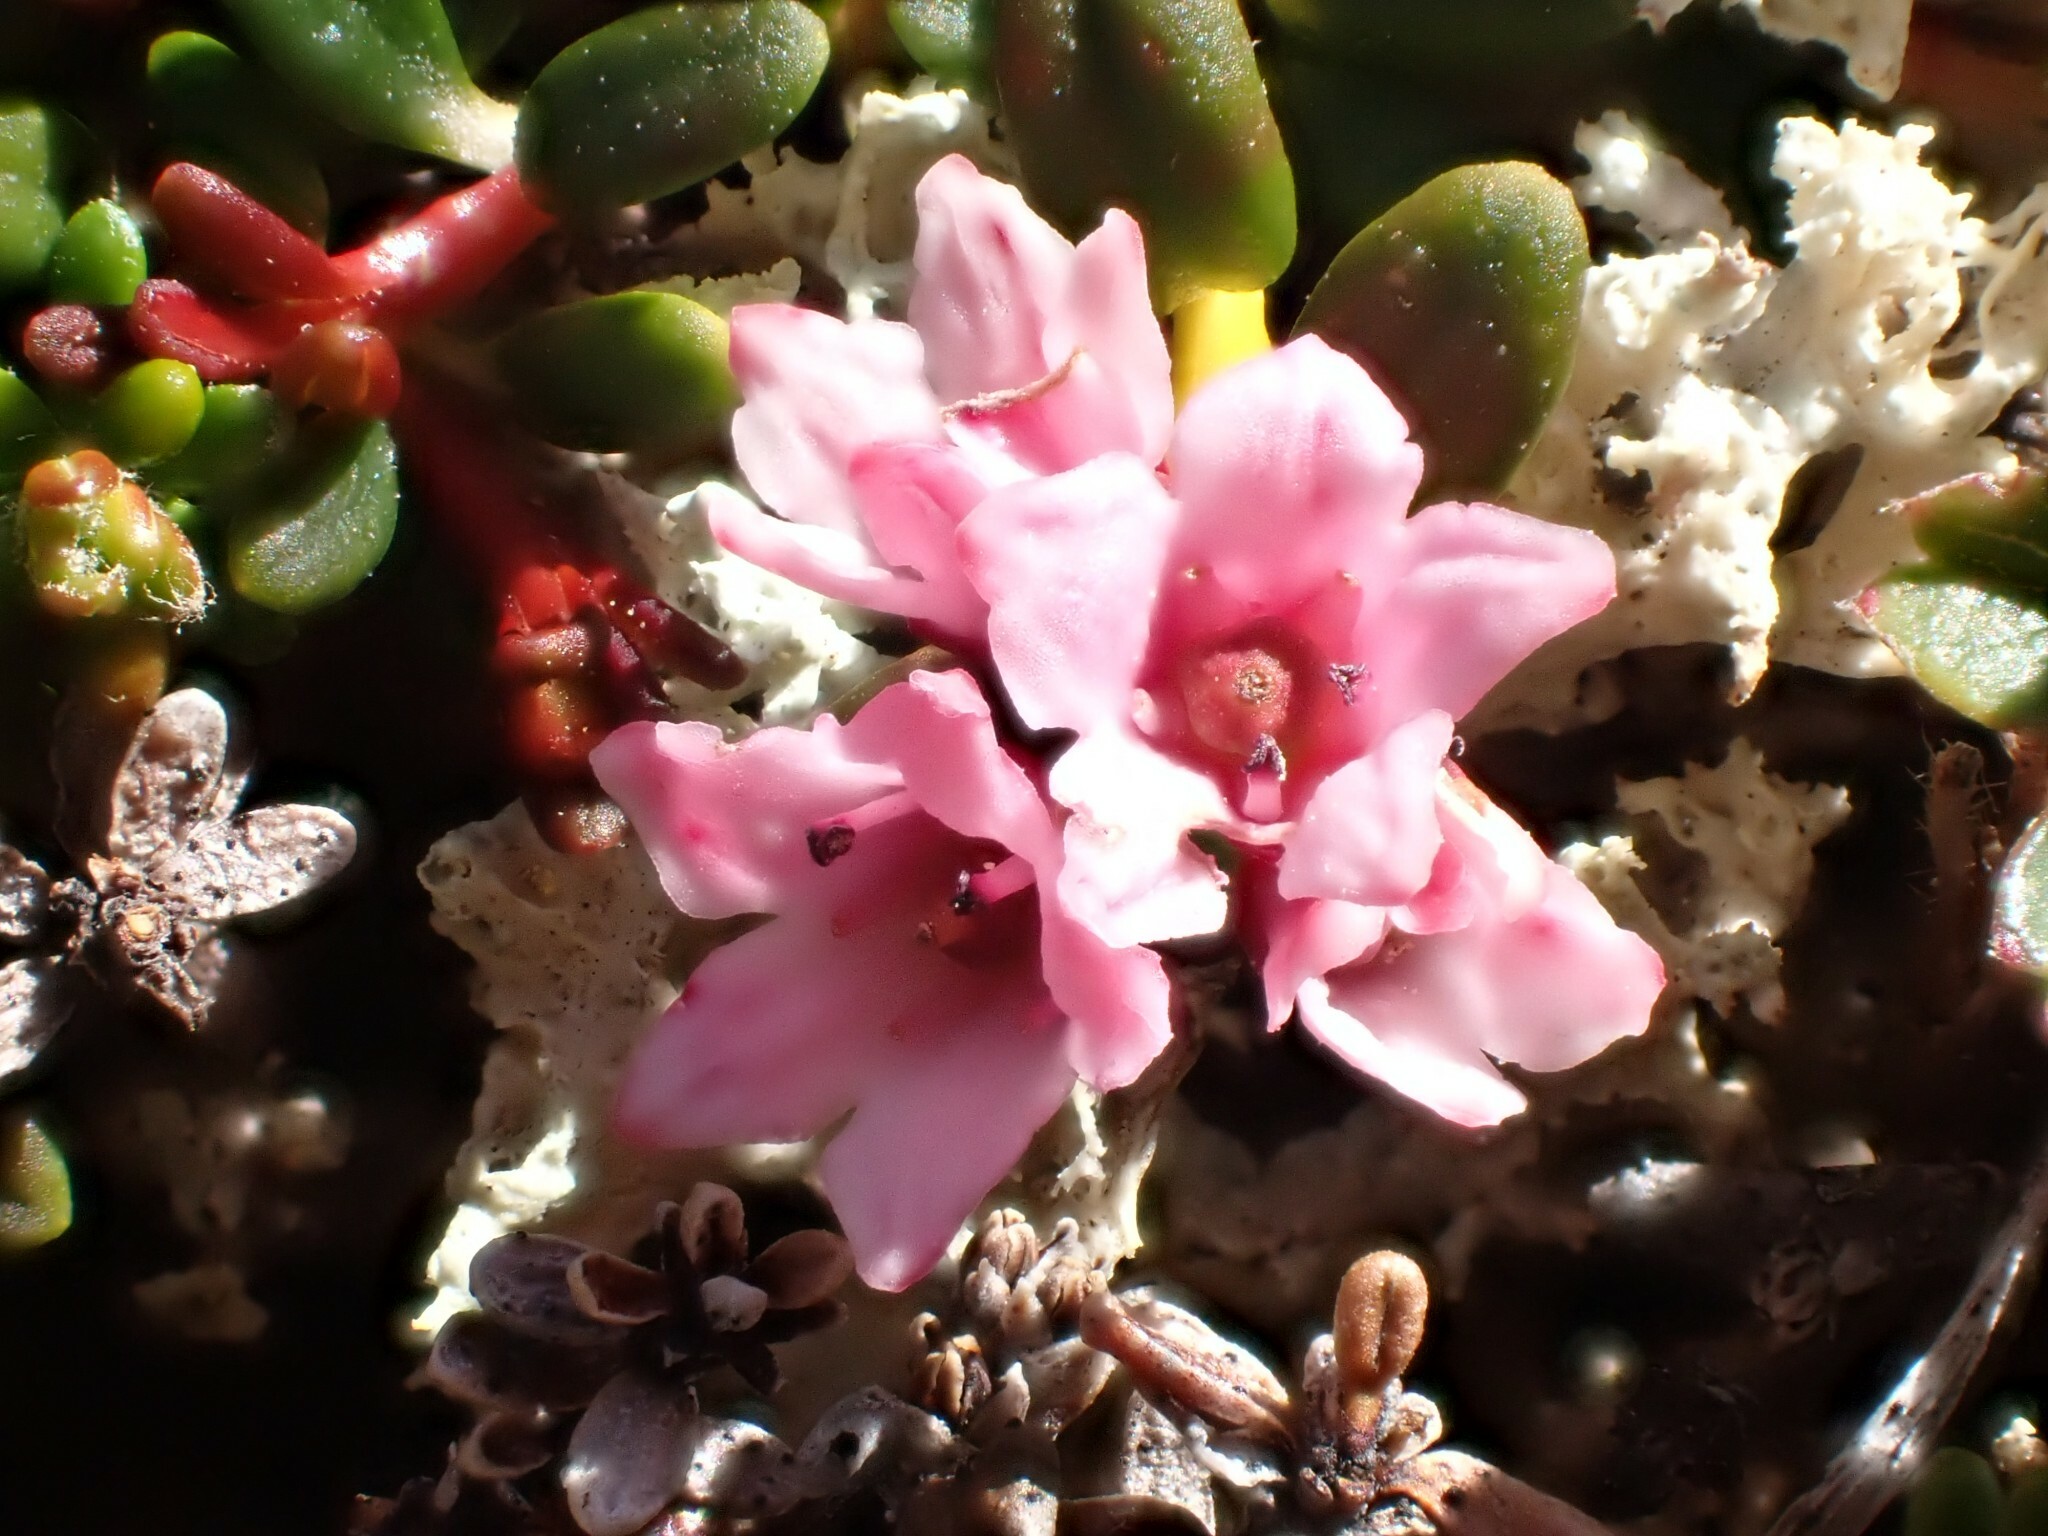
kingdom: Plantae
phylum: Tracheophyta
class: Magnoliopsida
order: Ericales
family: Ericaceae
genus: Kalmia
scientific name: Kalmia procumbens
